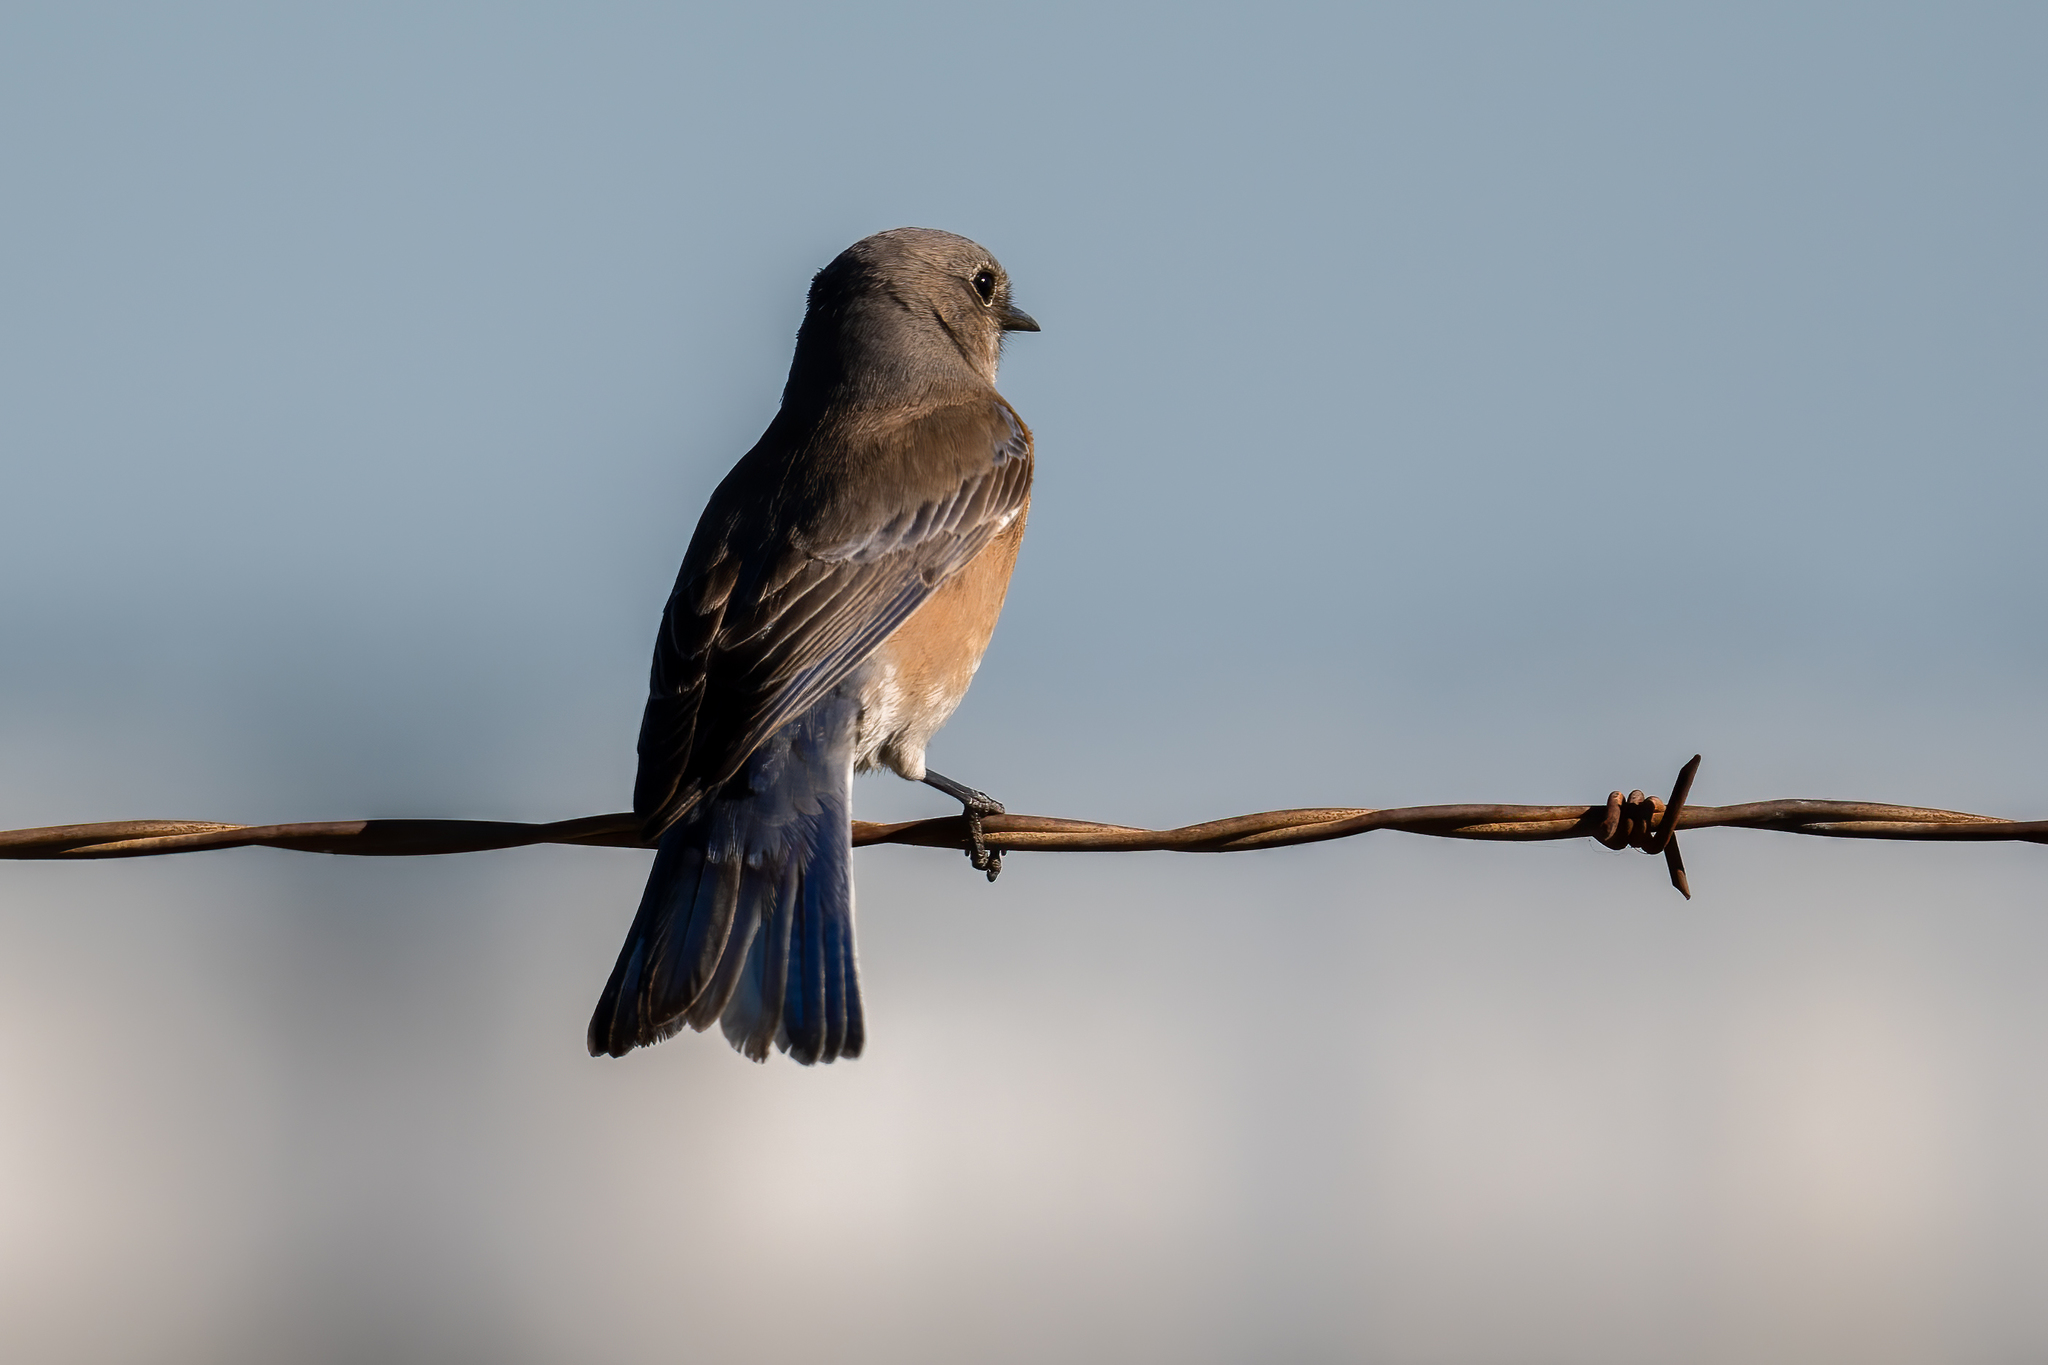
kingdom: Animalia
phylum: Chordata
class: Aves
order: Passeriformes
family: Turdidae
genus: Sialia
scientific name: Sialia mexicana
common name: Western bluebird
